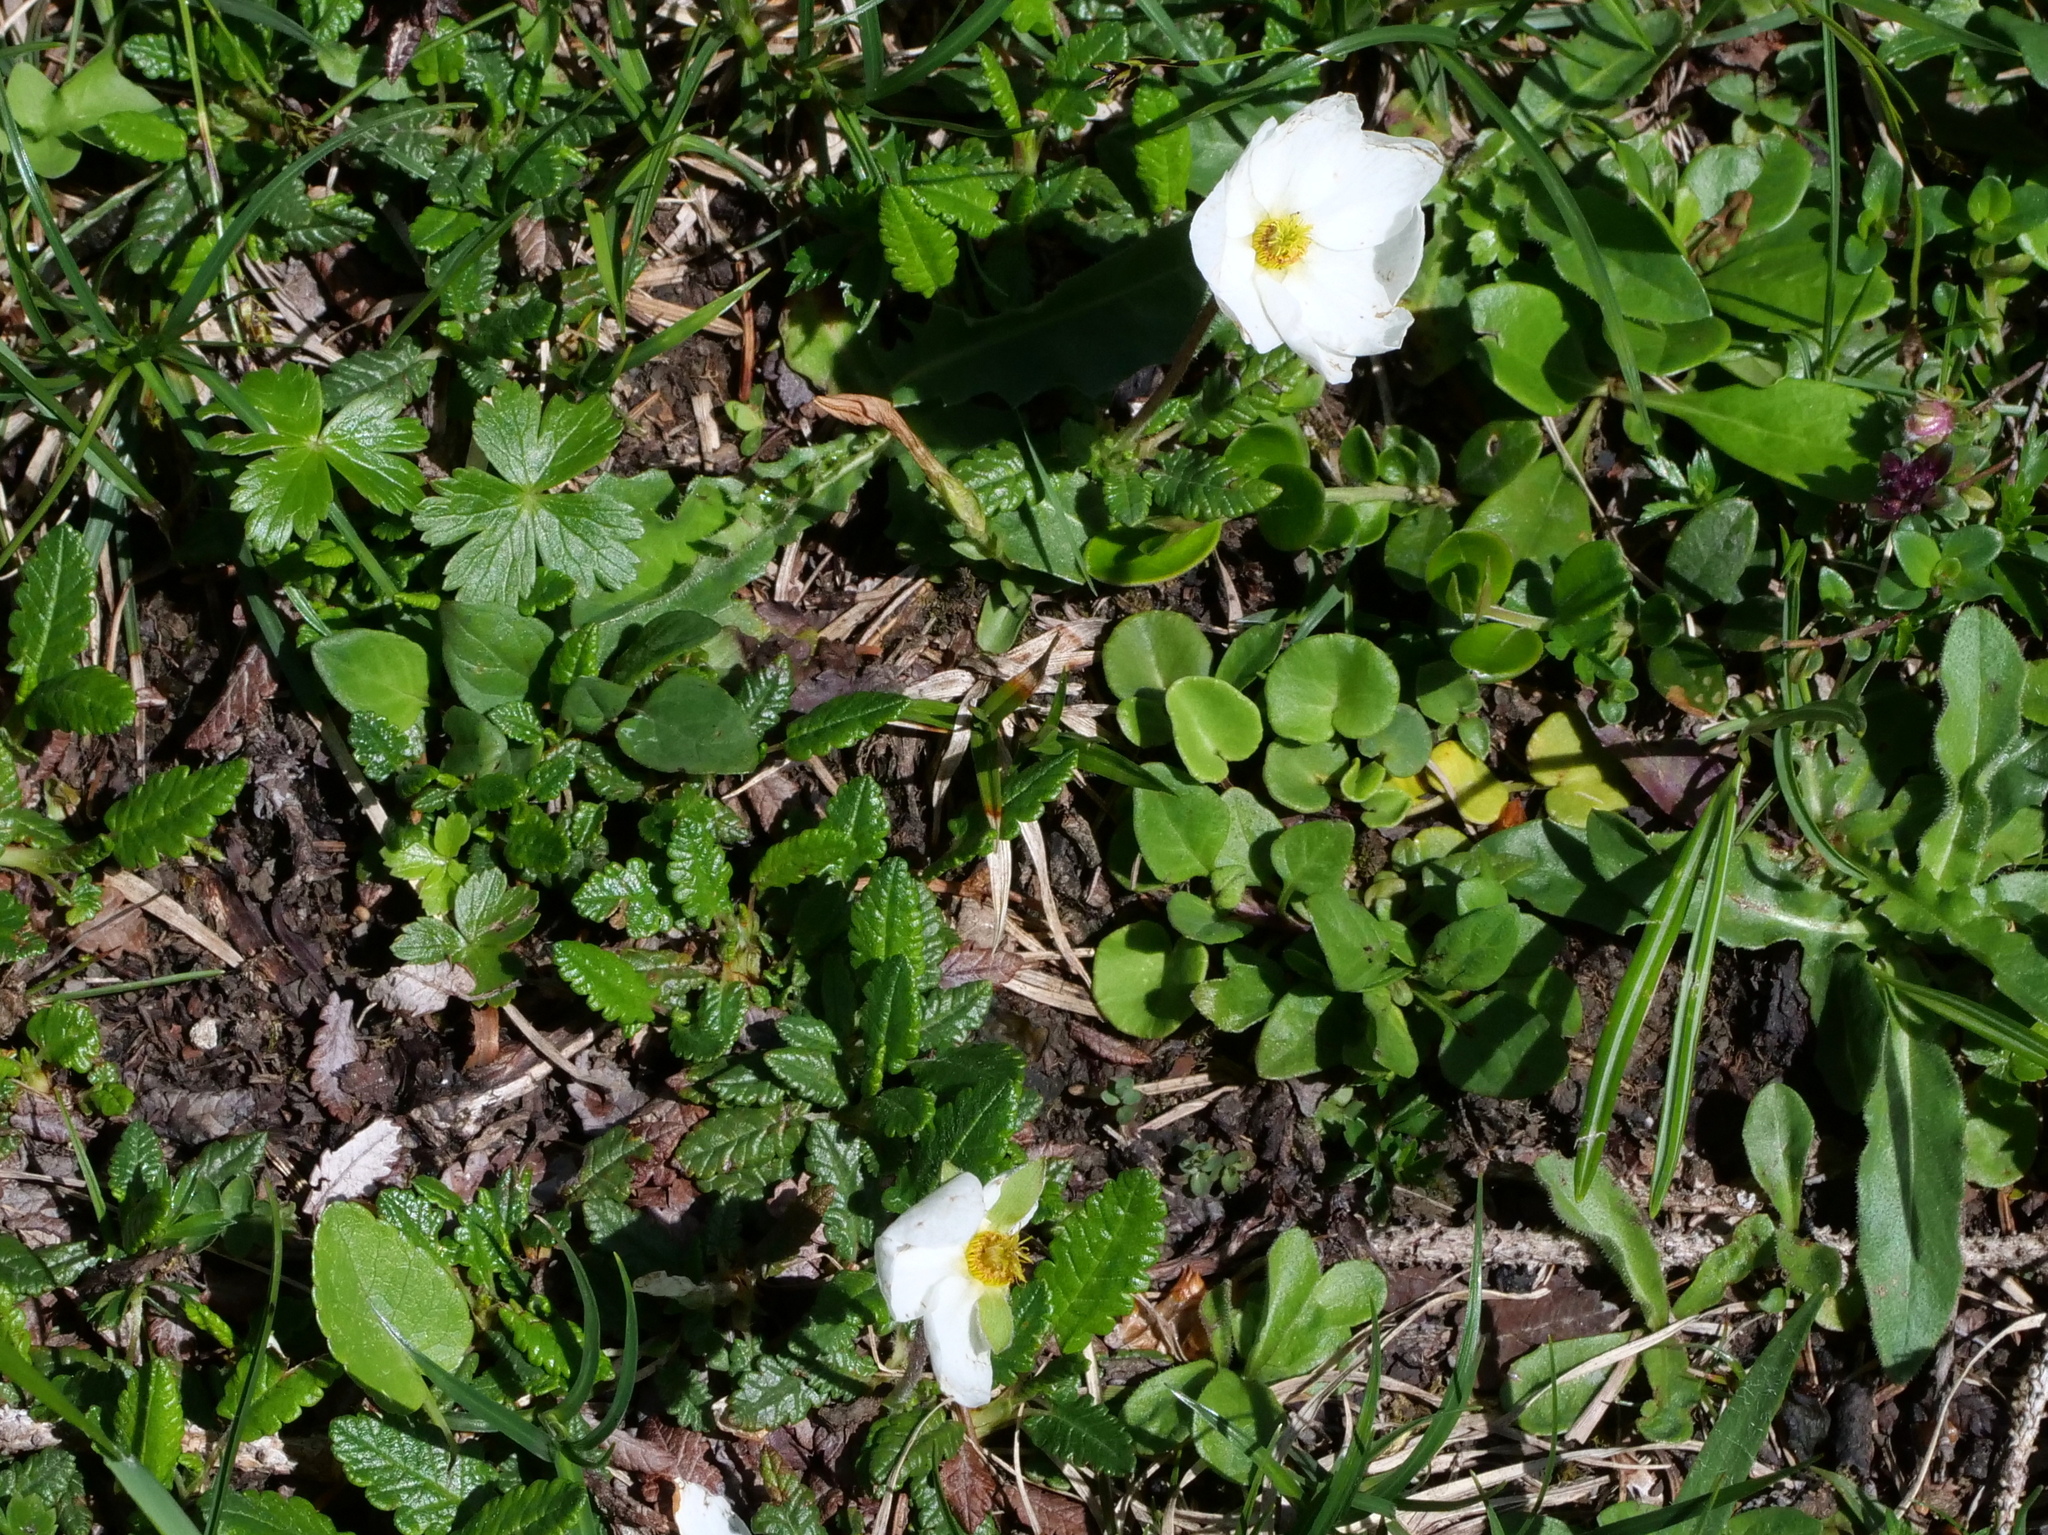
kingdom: Plantae
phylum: Tracheophyta
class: Magnoliopsida
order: Rosales
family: Rosaceae
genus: Dryas
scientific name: Dryas octopetala
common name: Eight-petal mountain-avens
